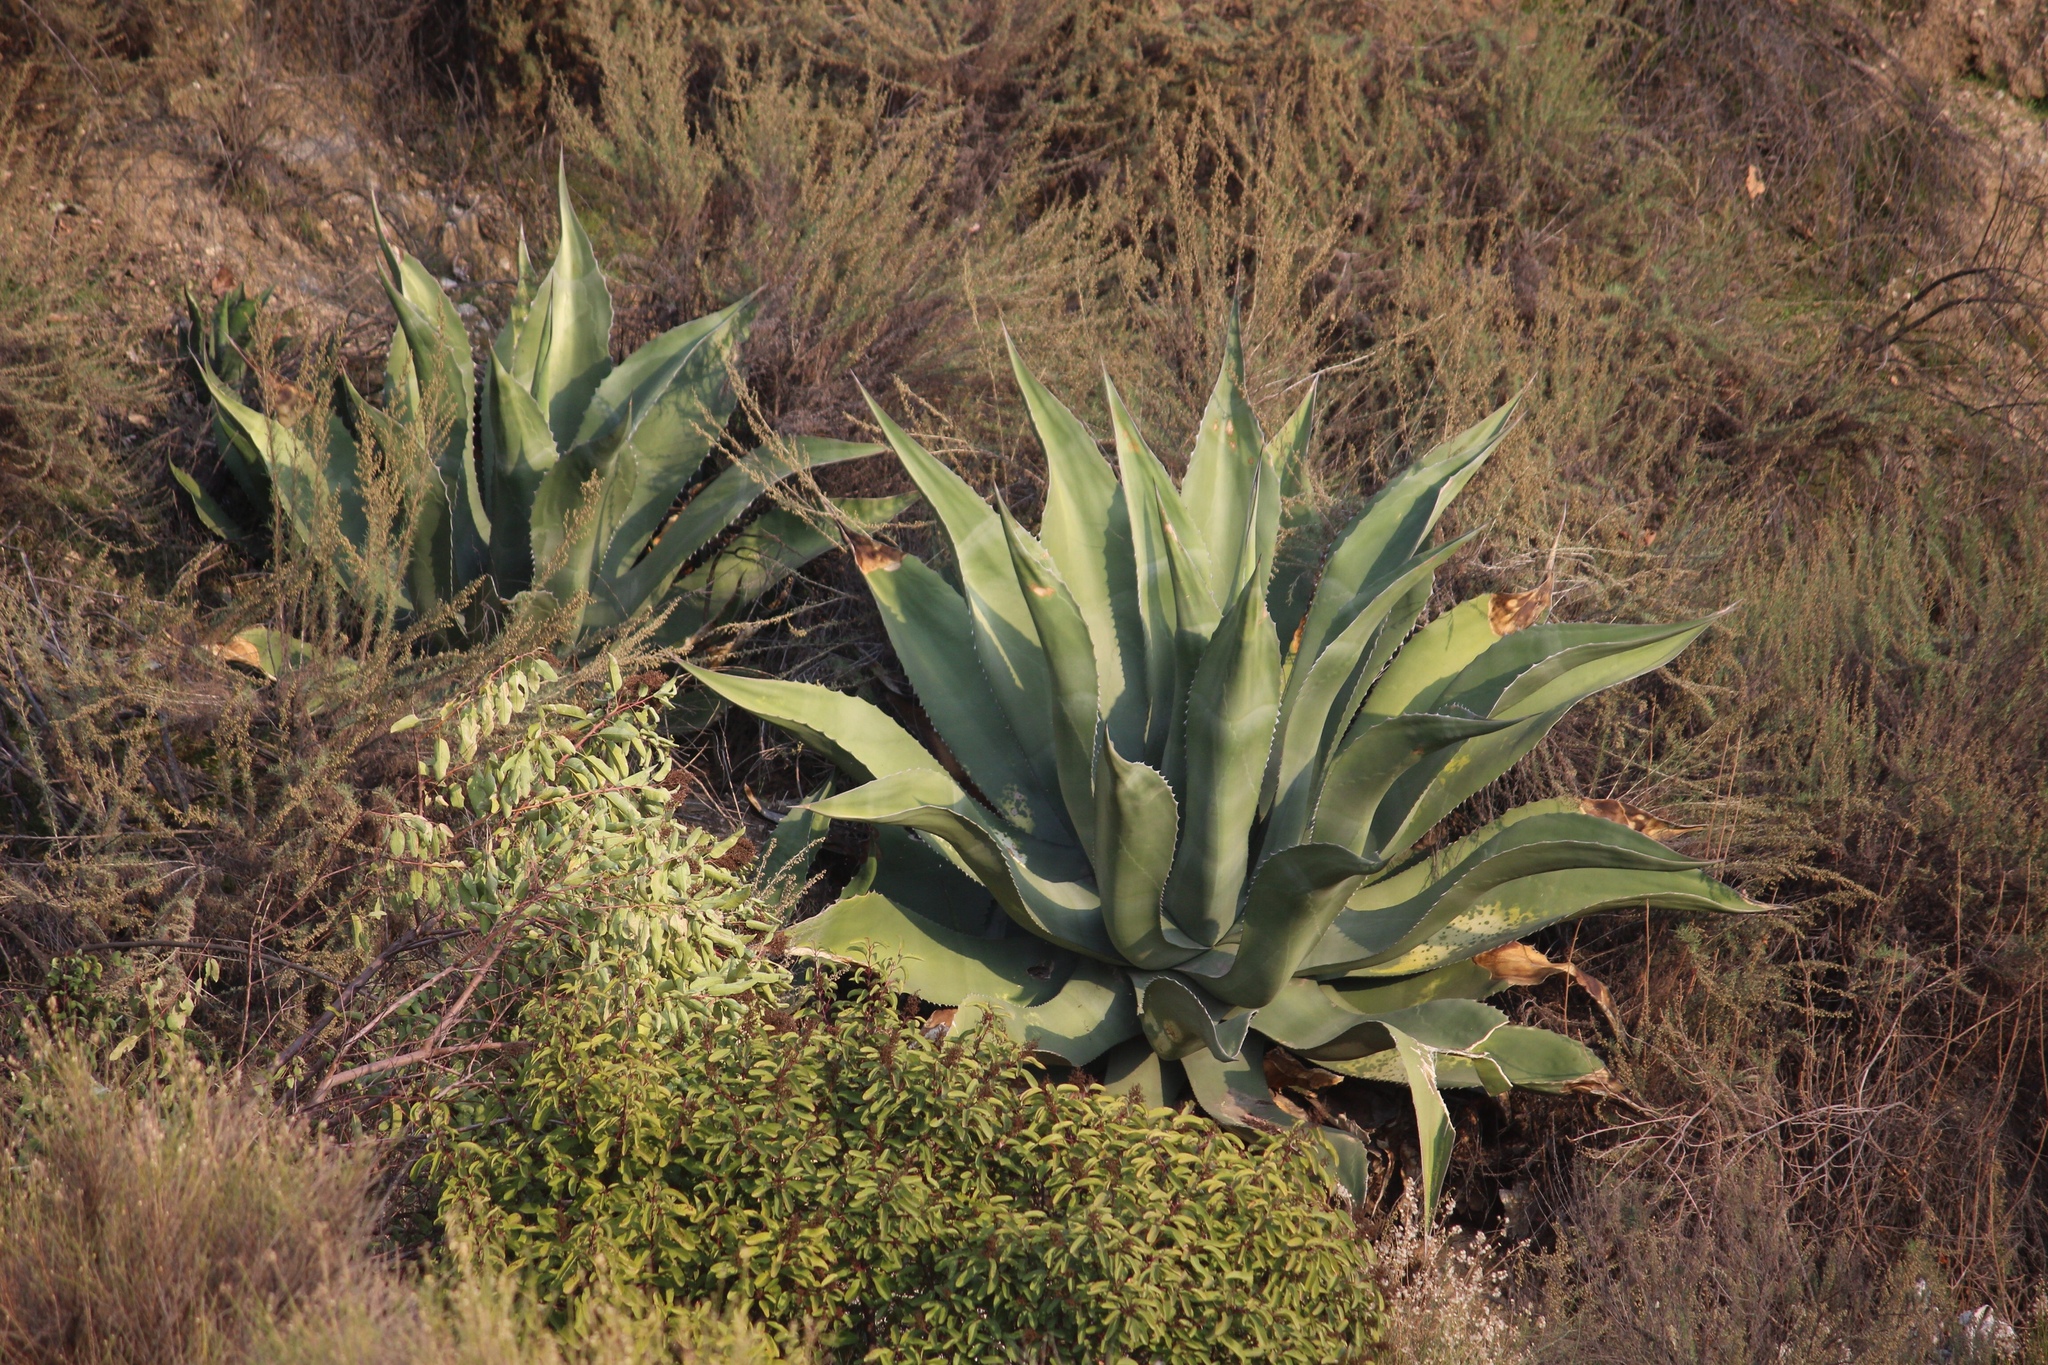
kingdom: Plantae
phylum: Tracheophyta
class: Liliopsida
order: Asparagales
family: Asparagaceae
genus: Agave
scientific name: Agave americana
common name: Centuryplant
